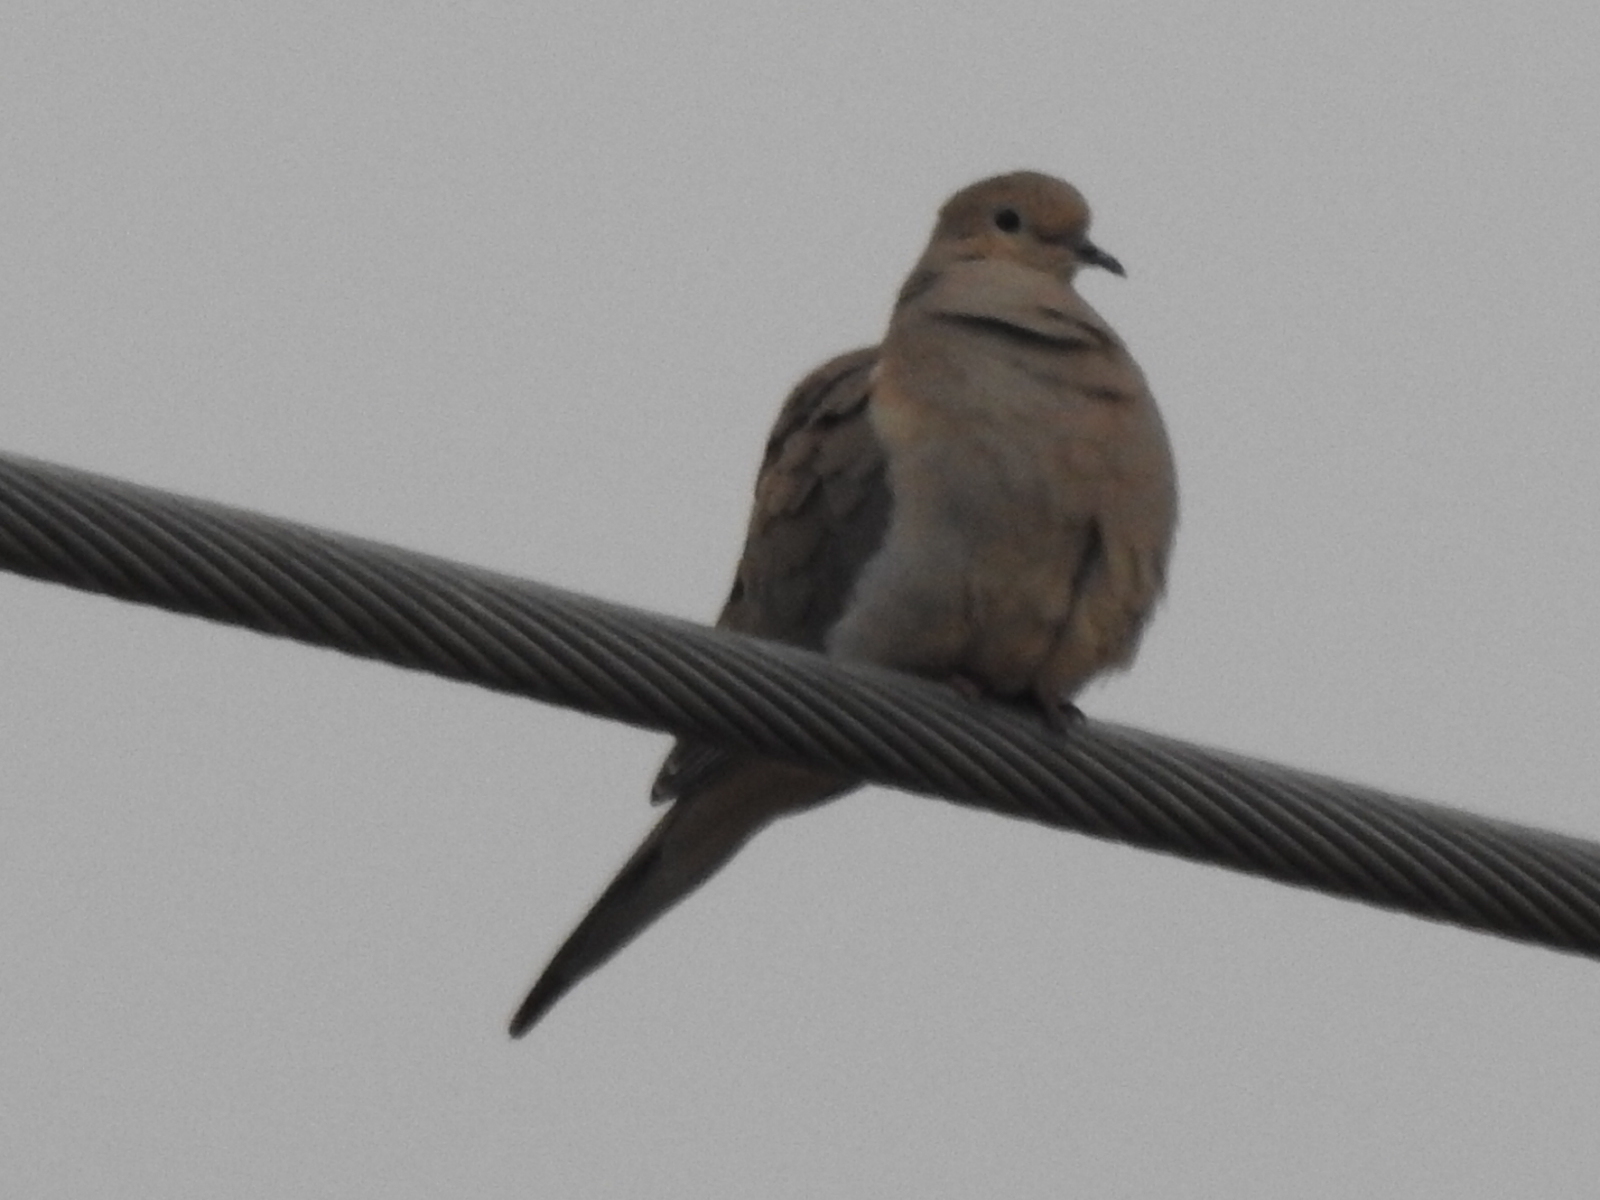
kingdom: Animalia
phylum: Chordata
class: Aves
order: Columbiformes
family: Columbidae
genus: Zenaida
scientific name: Zenaida macroura
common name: Mourning dove
